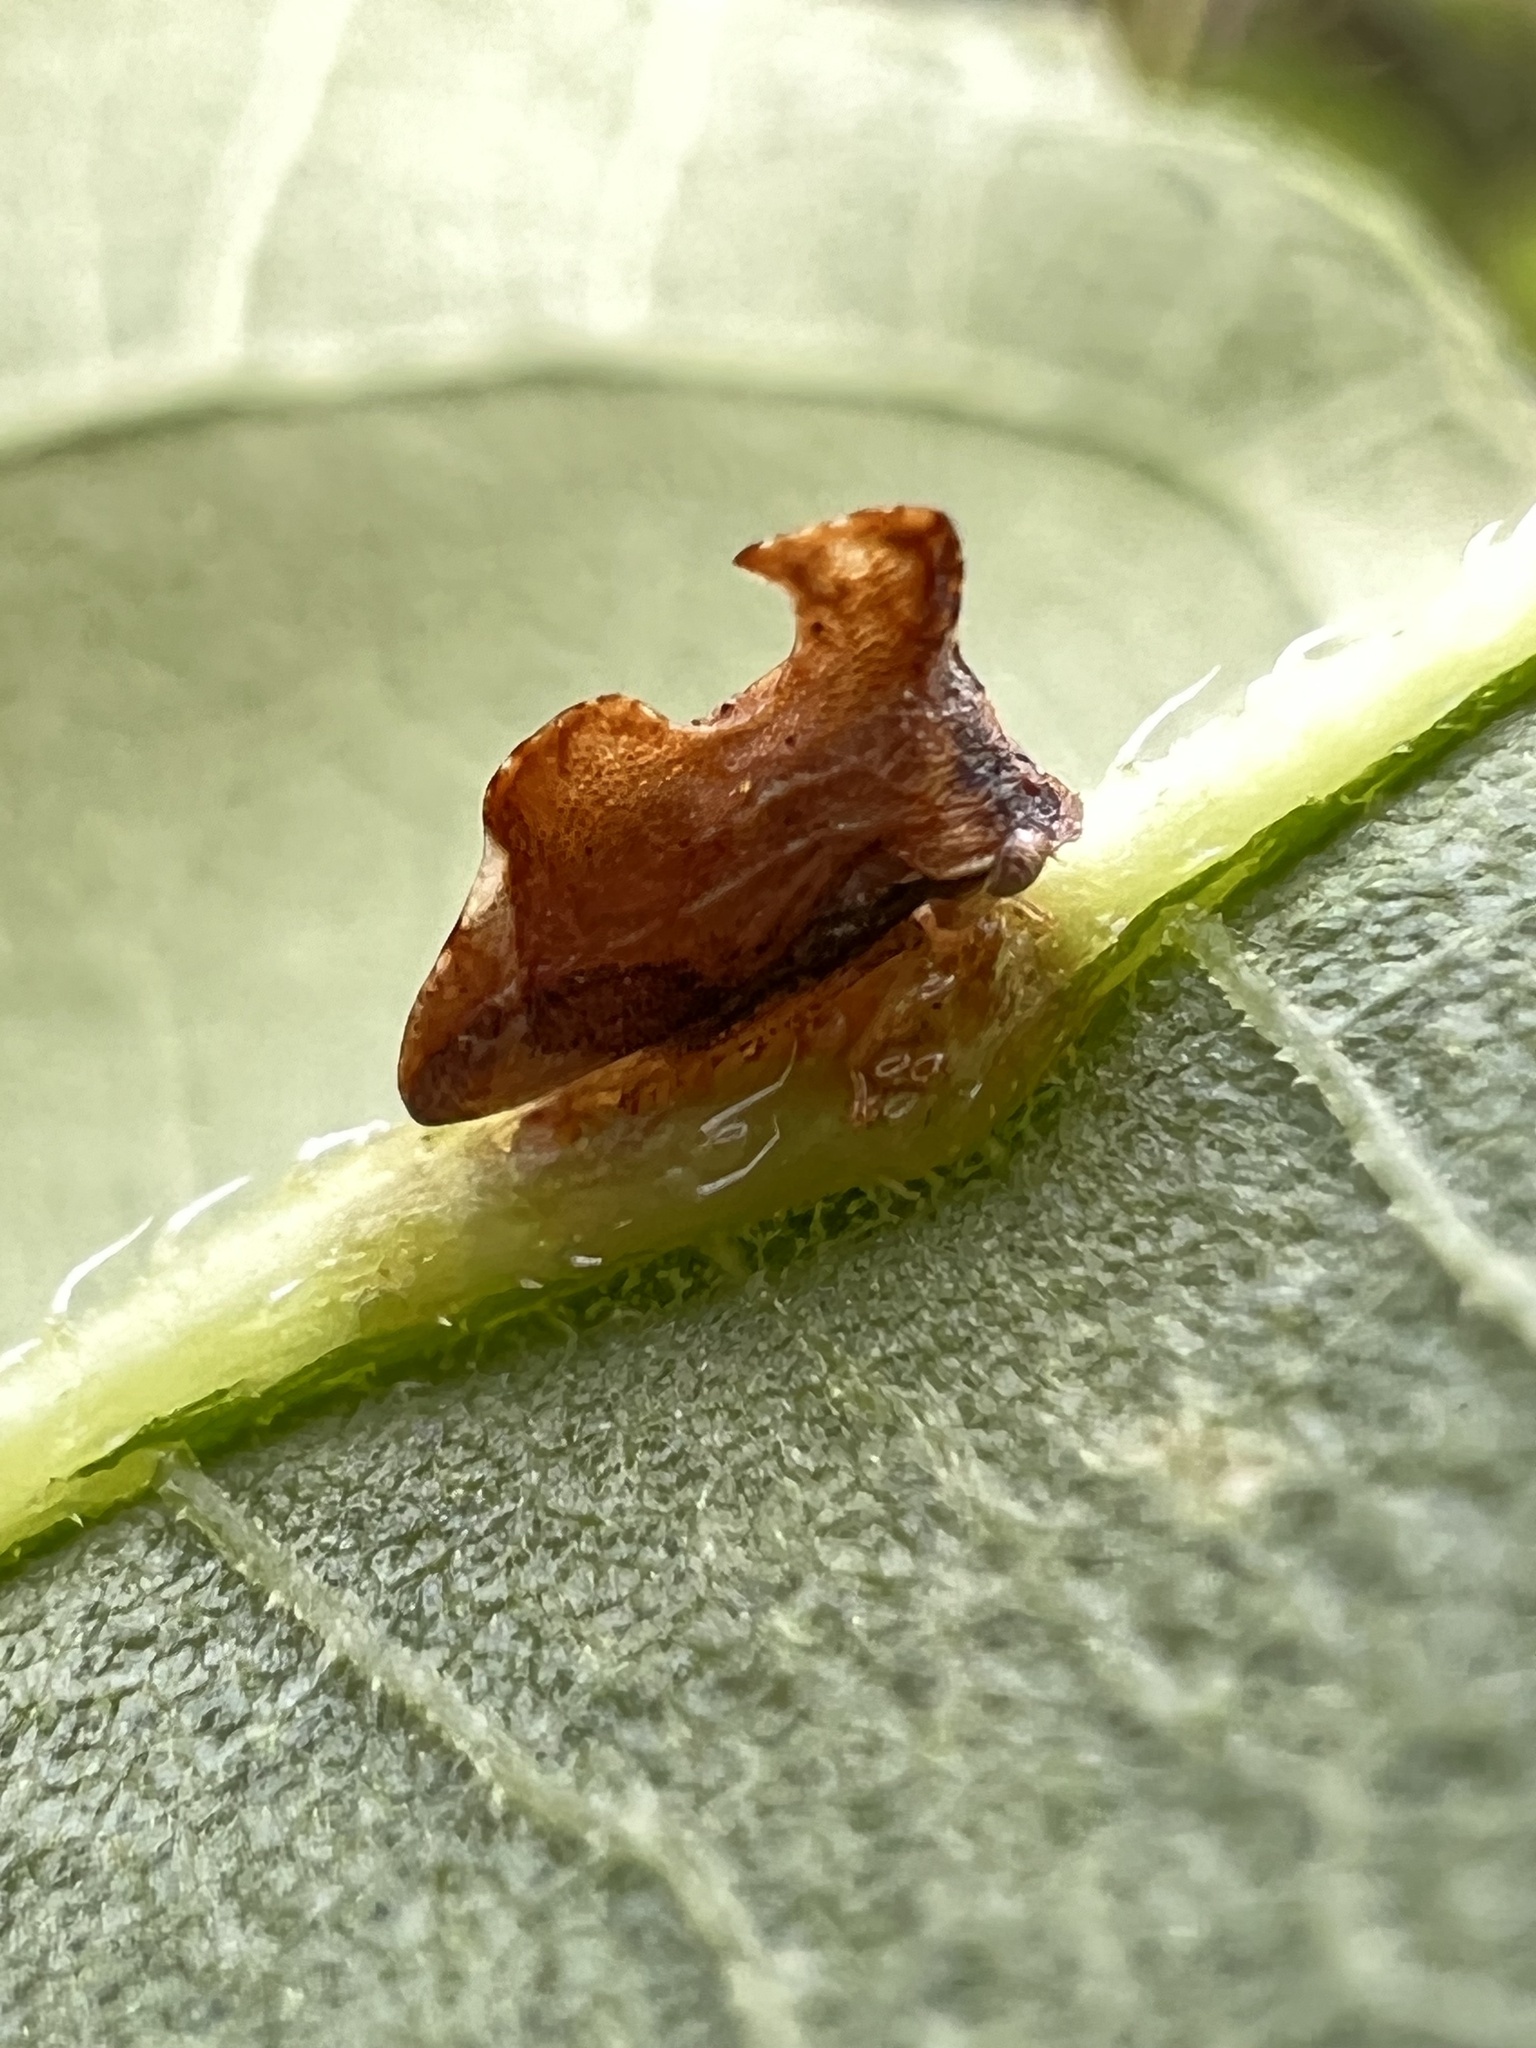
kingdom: Animalia
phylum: Arthropoda
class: Insecta
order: Hemiptera
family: Membracidae
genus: Entylia
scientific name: Entylia carinata
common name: Keeled treehopper
